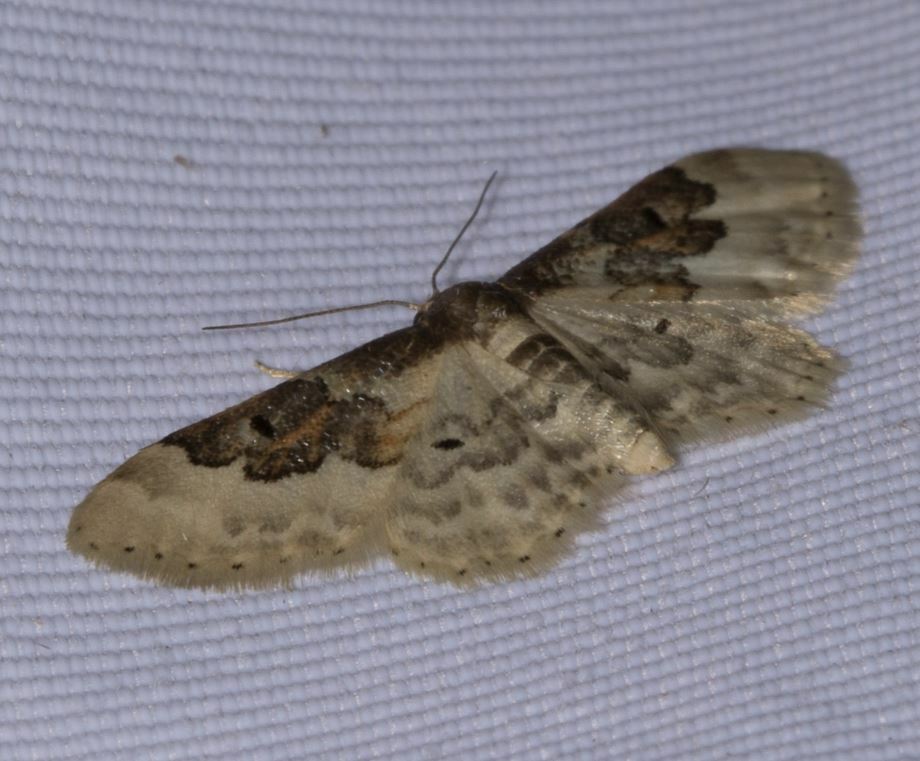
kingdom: Animalia
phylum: Arthropoda
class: Insecta
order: Lepidoptera
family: Geometridae
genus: Idaea
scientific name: Idaea rusticata
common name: Least carpet
